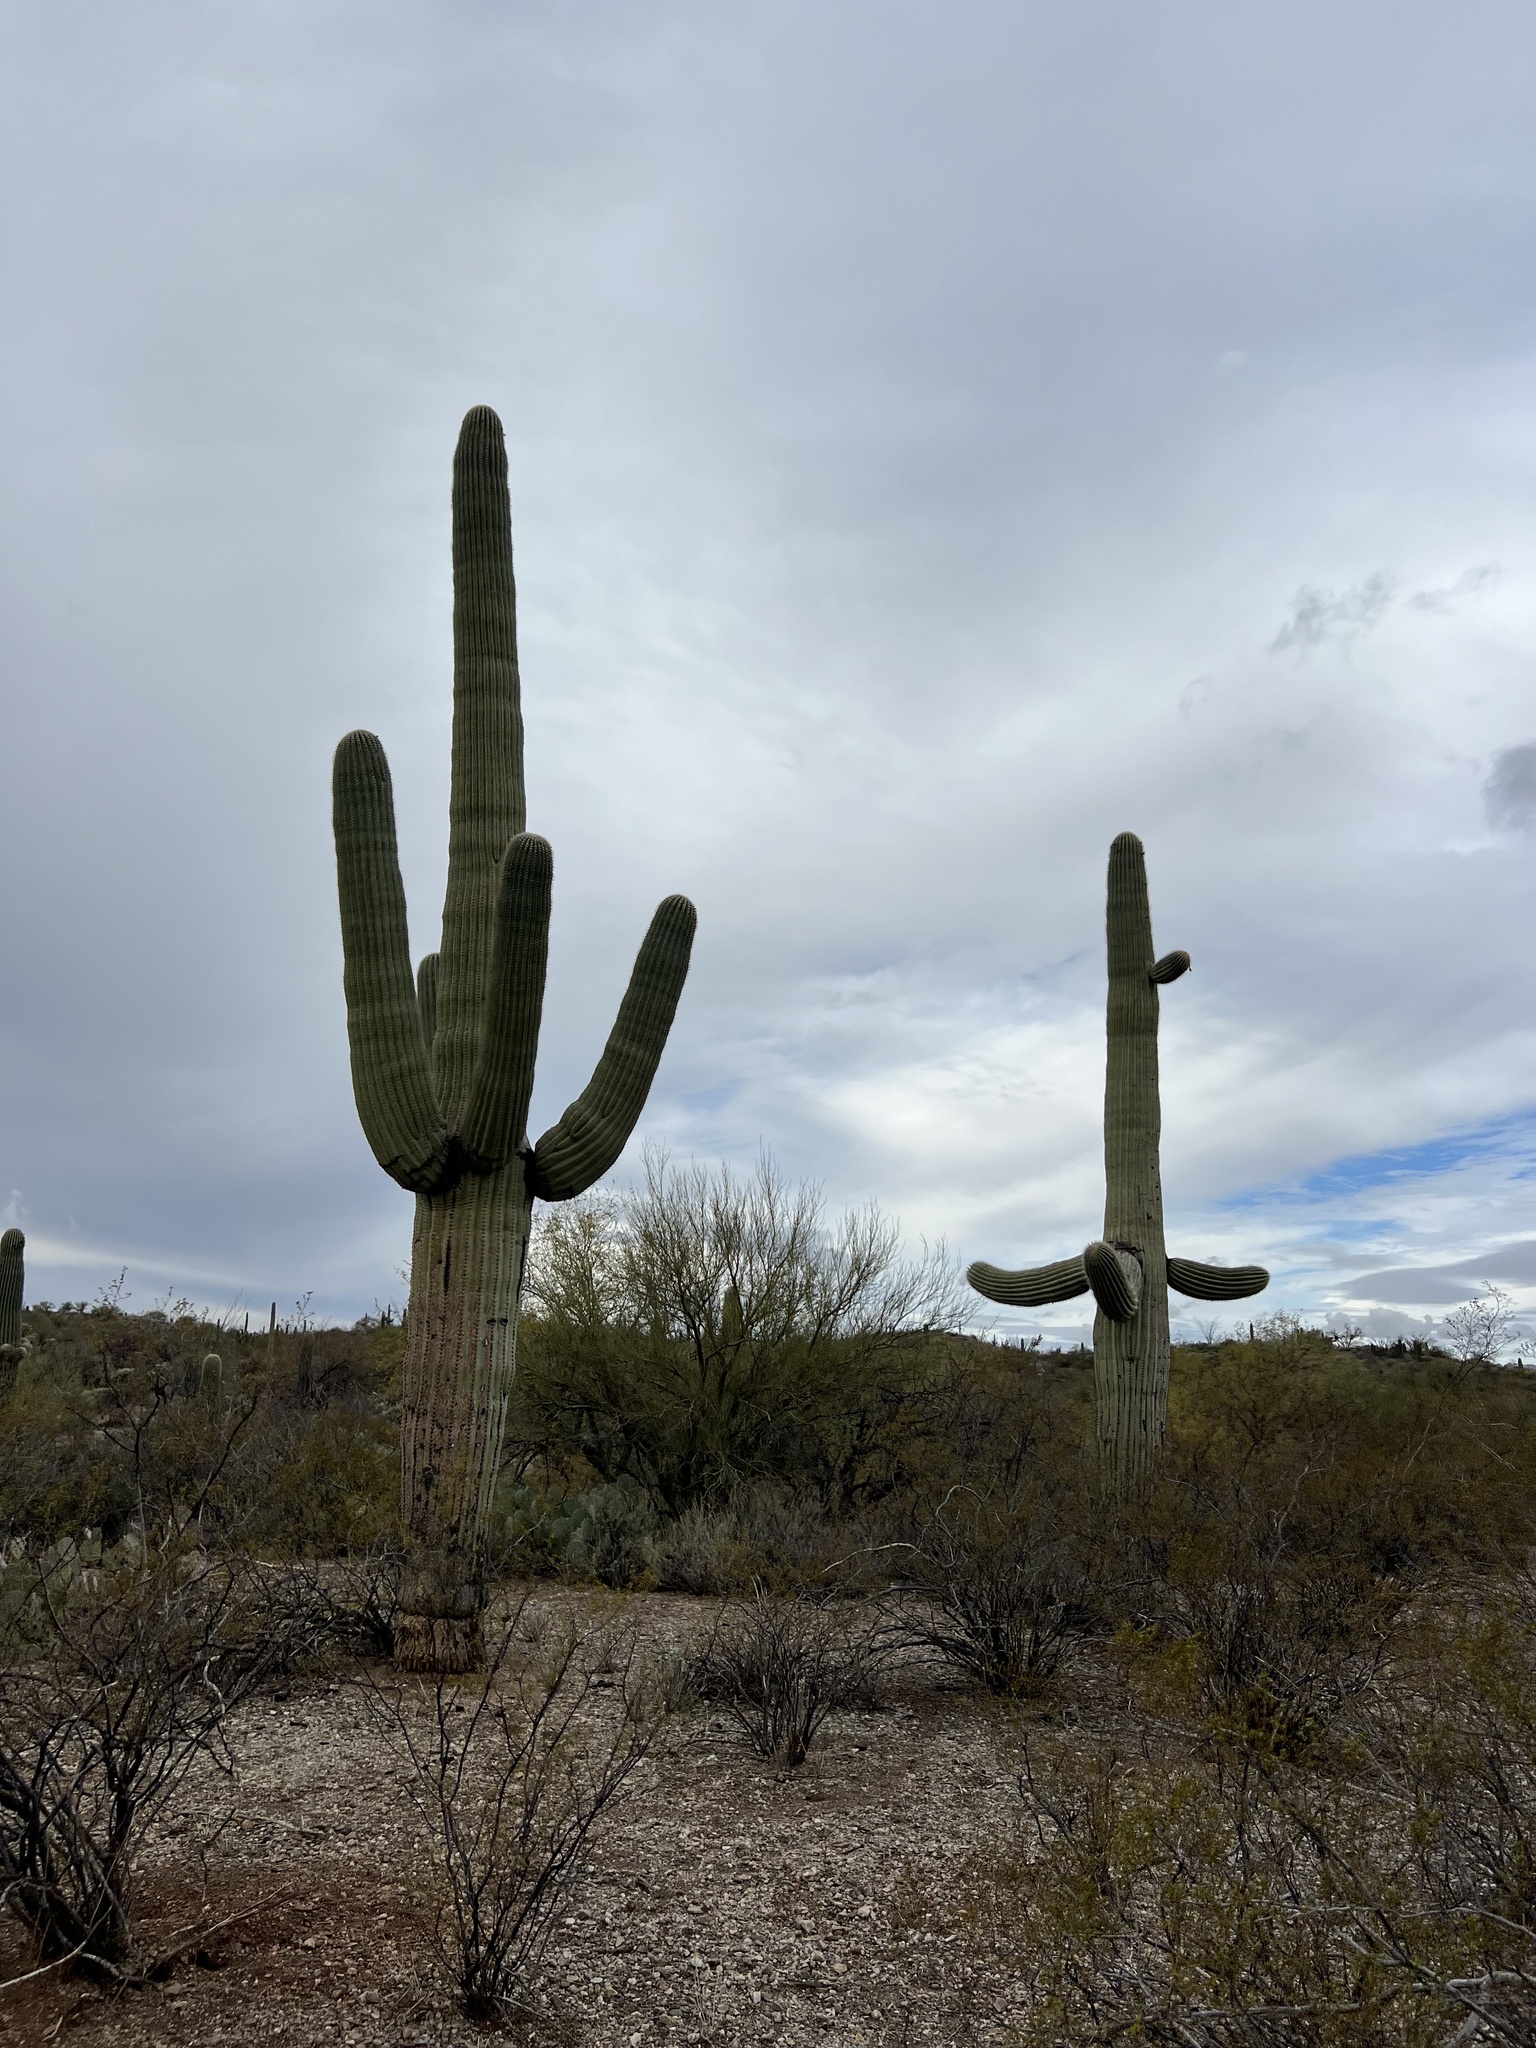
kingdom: Plantae
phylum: Tracheophyta
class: Magnoliopsida
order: Caryophyllales
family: Cactaceae
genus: Carnegiea
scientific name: Carnegiea gigantea
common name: Saguaro
